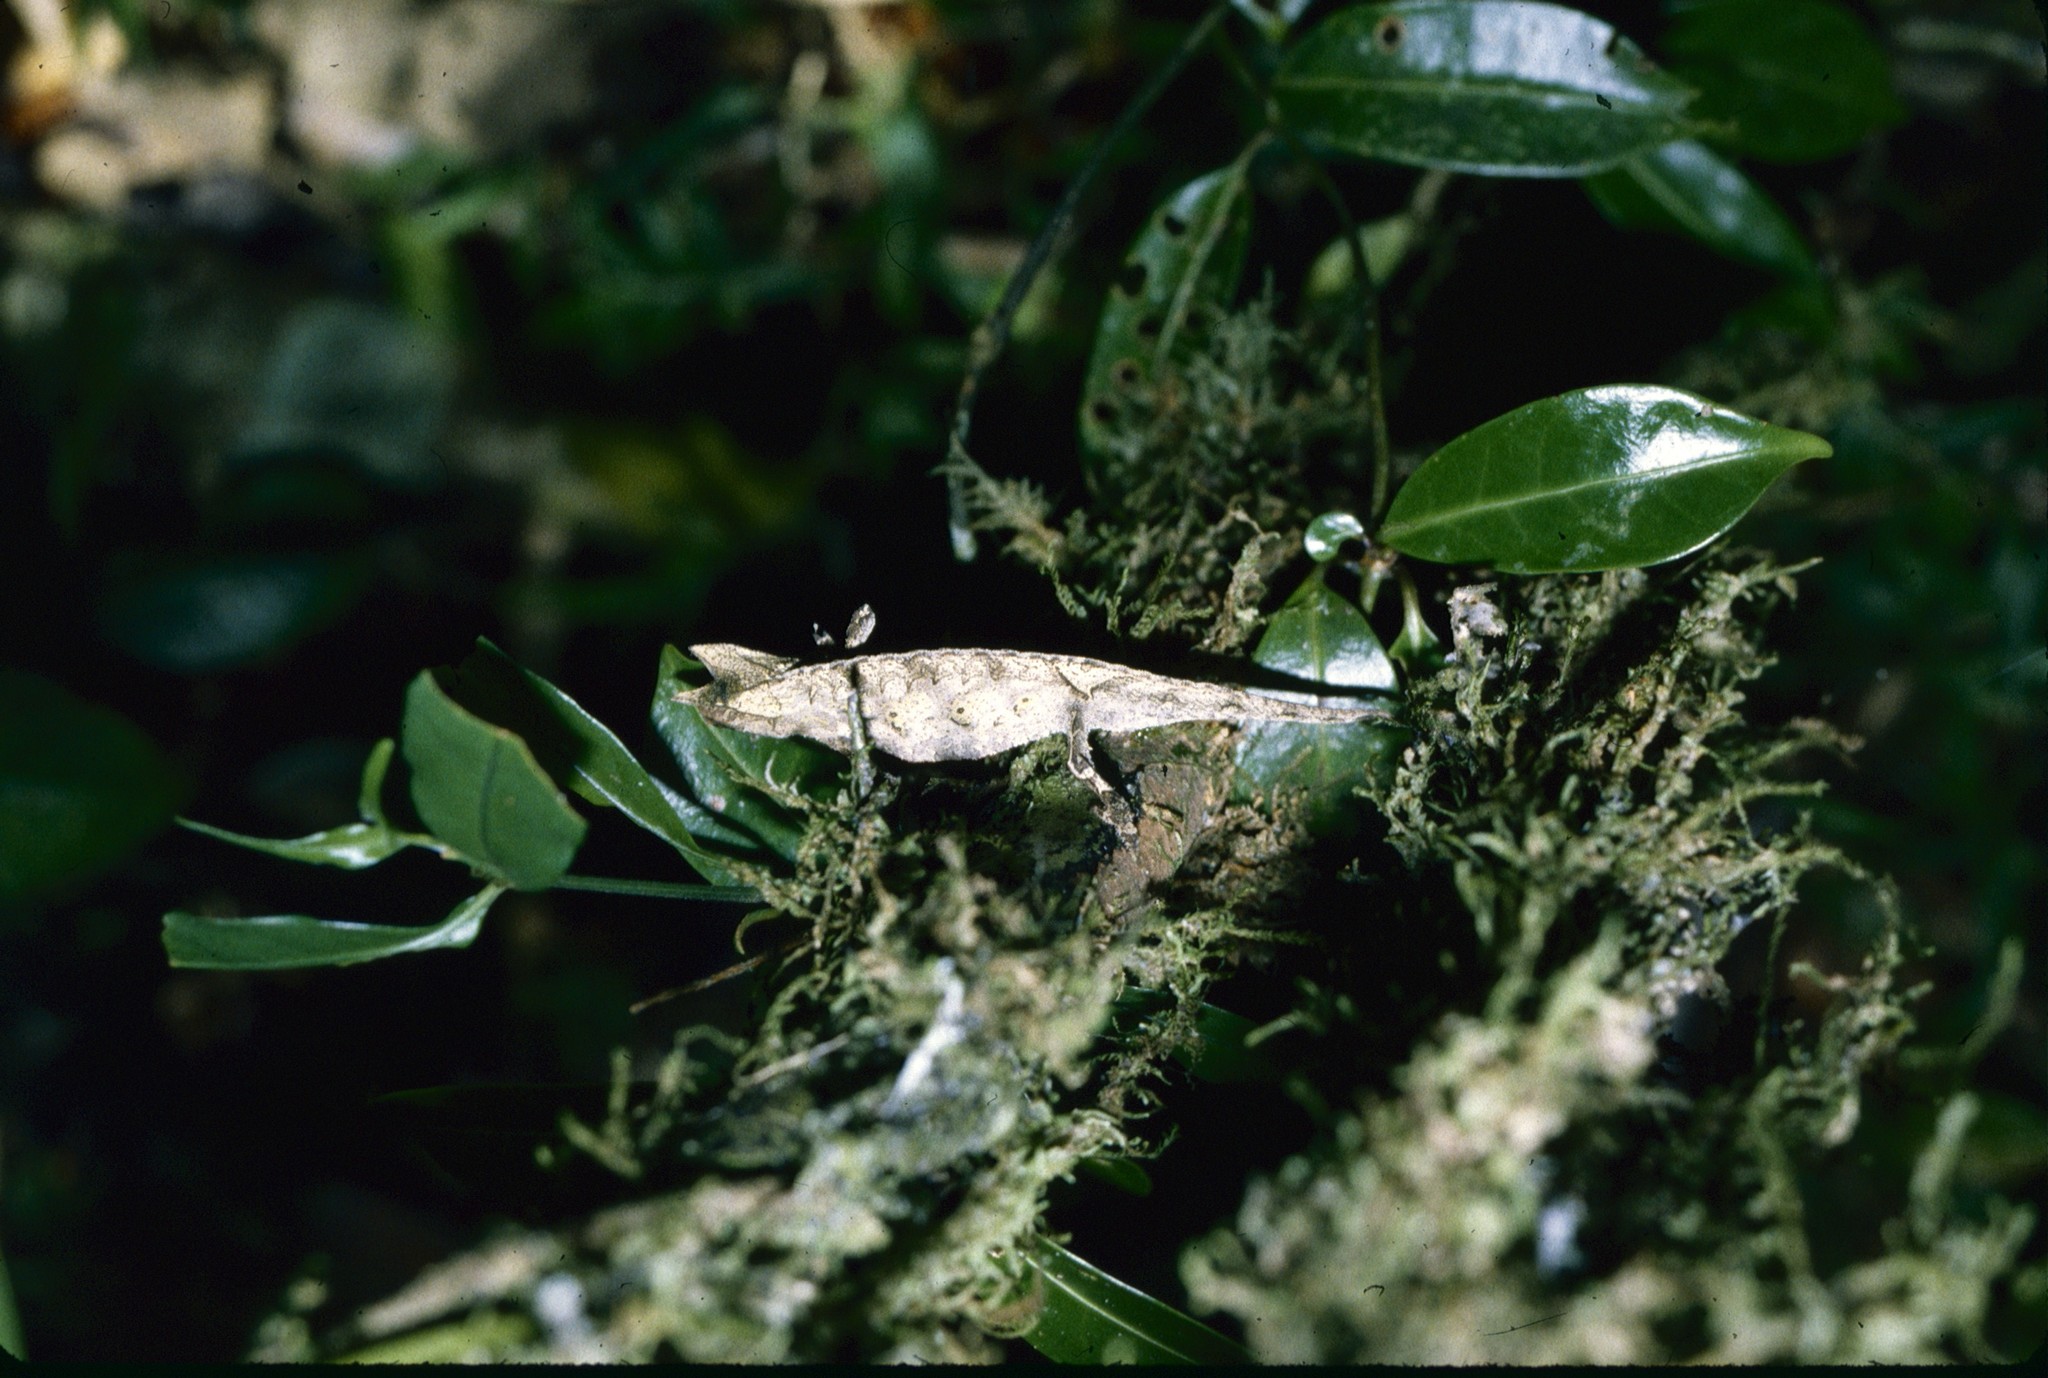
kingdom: Animalia
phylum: Chordata
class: Squamata
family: Chamaeleonidae
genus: Brookesia
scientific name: Brookesia superciliaris
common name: Brown leaf chameleon
